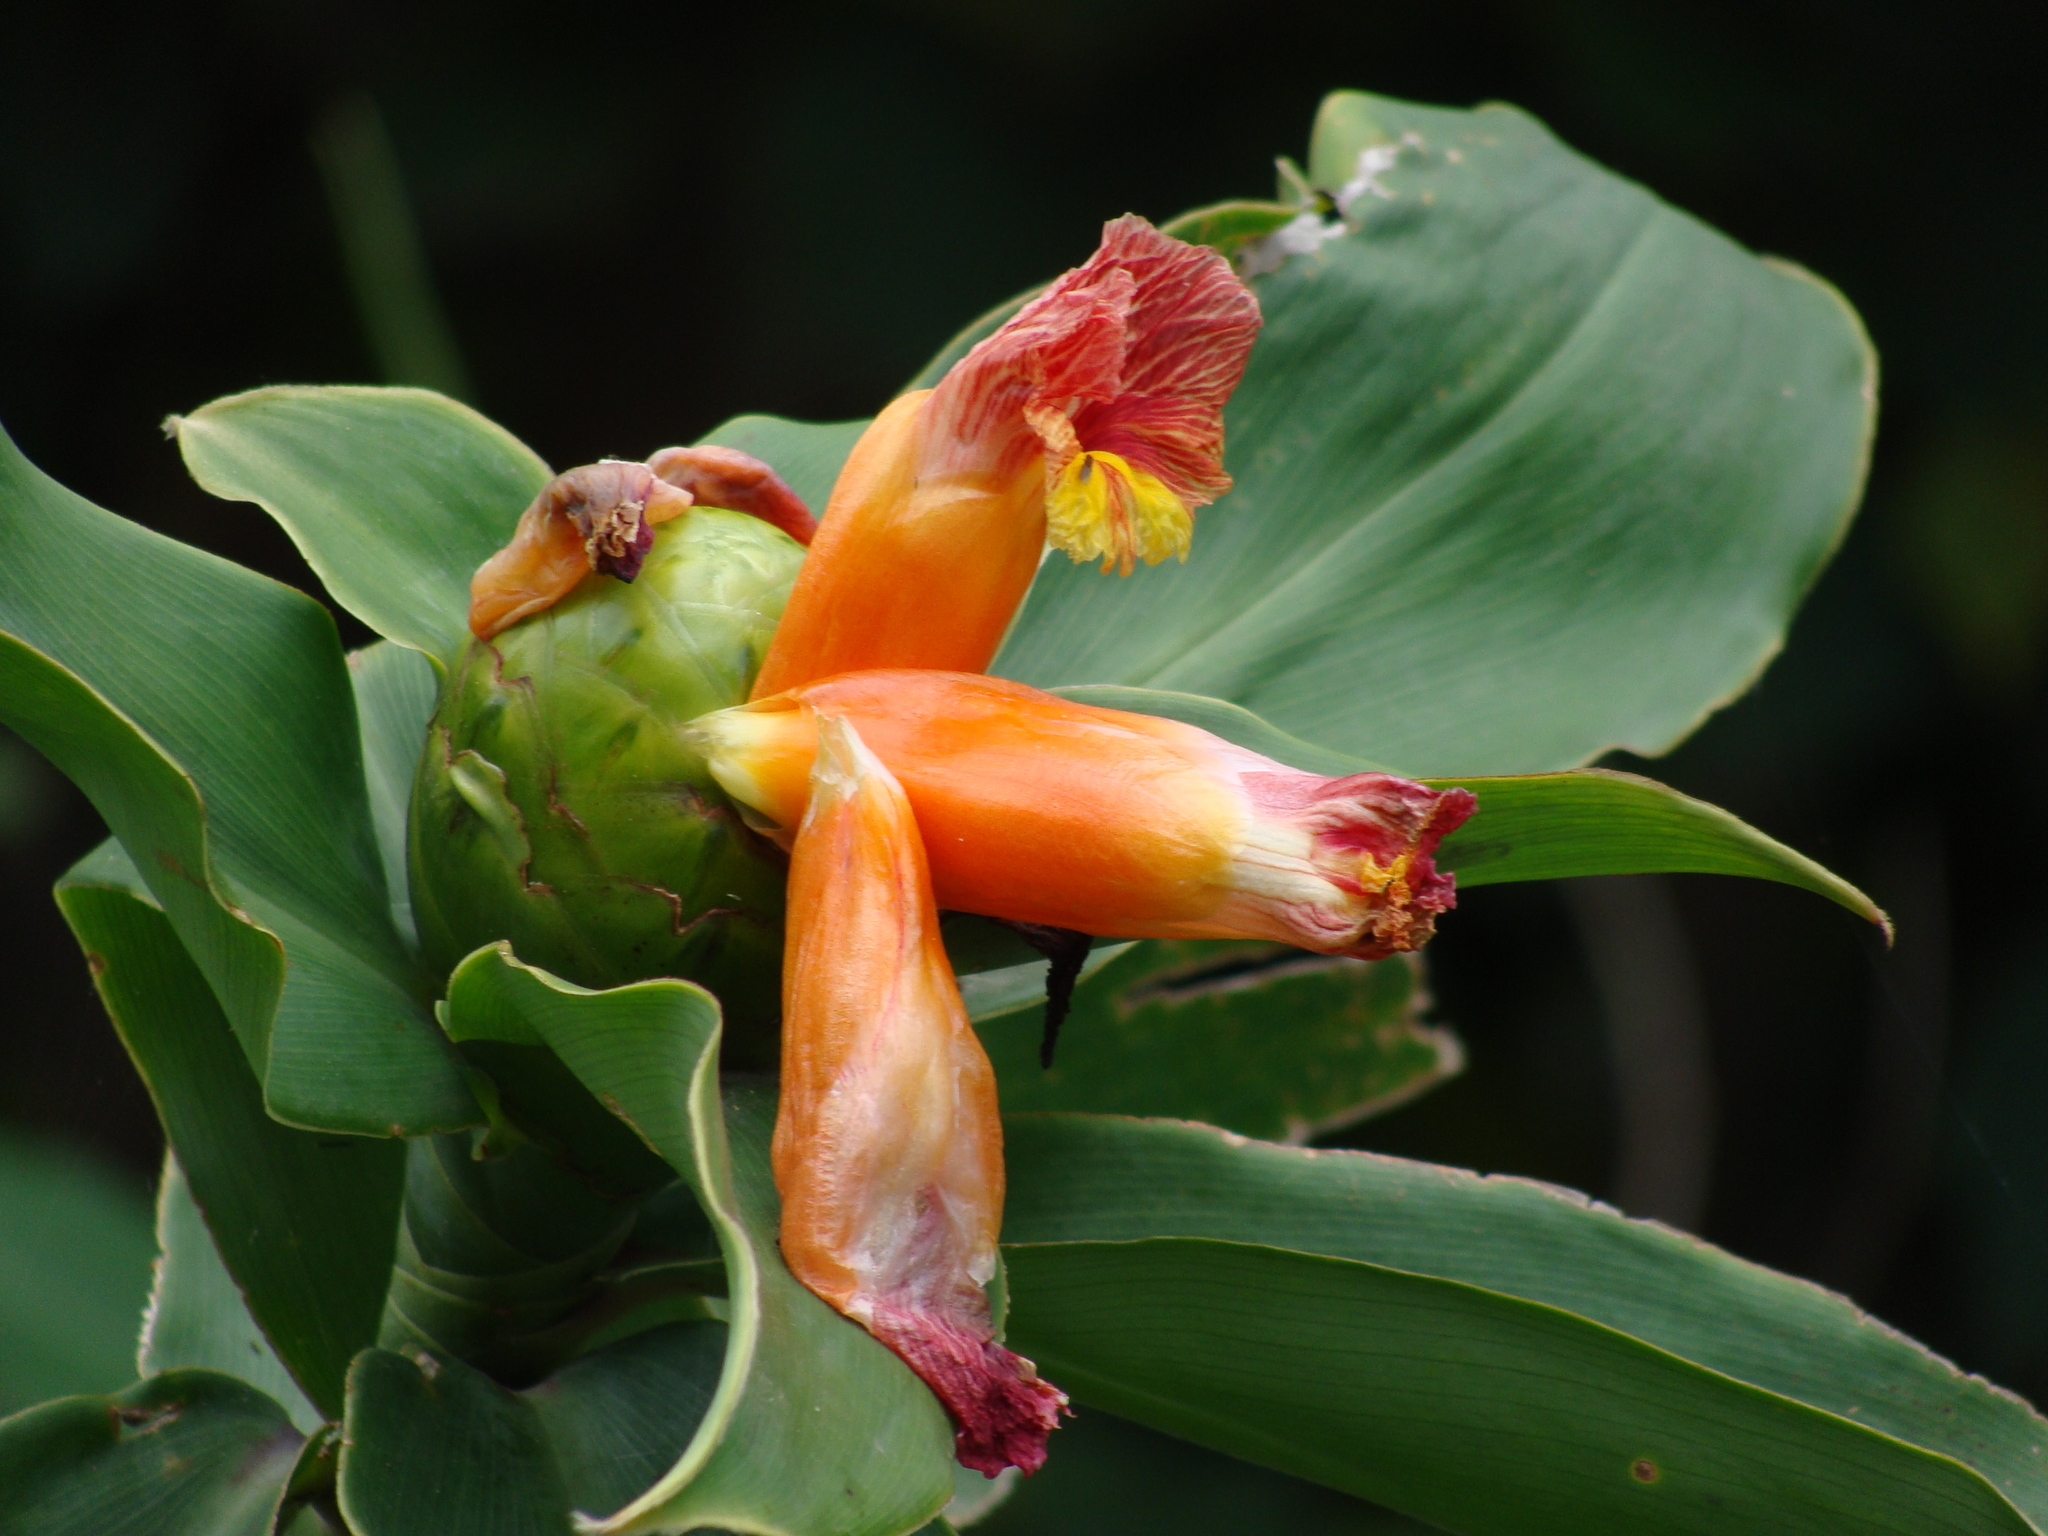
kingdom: Plantae
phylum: Tracheophyta
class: Liliopsida
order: Zingiberales
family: Costaceae
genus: Costus
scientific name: Costus pictus
